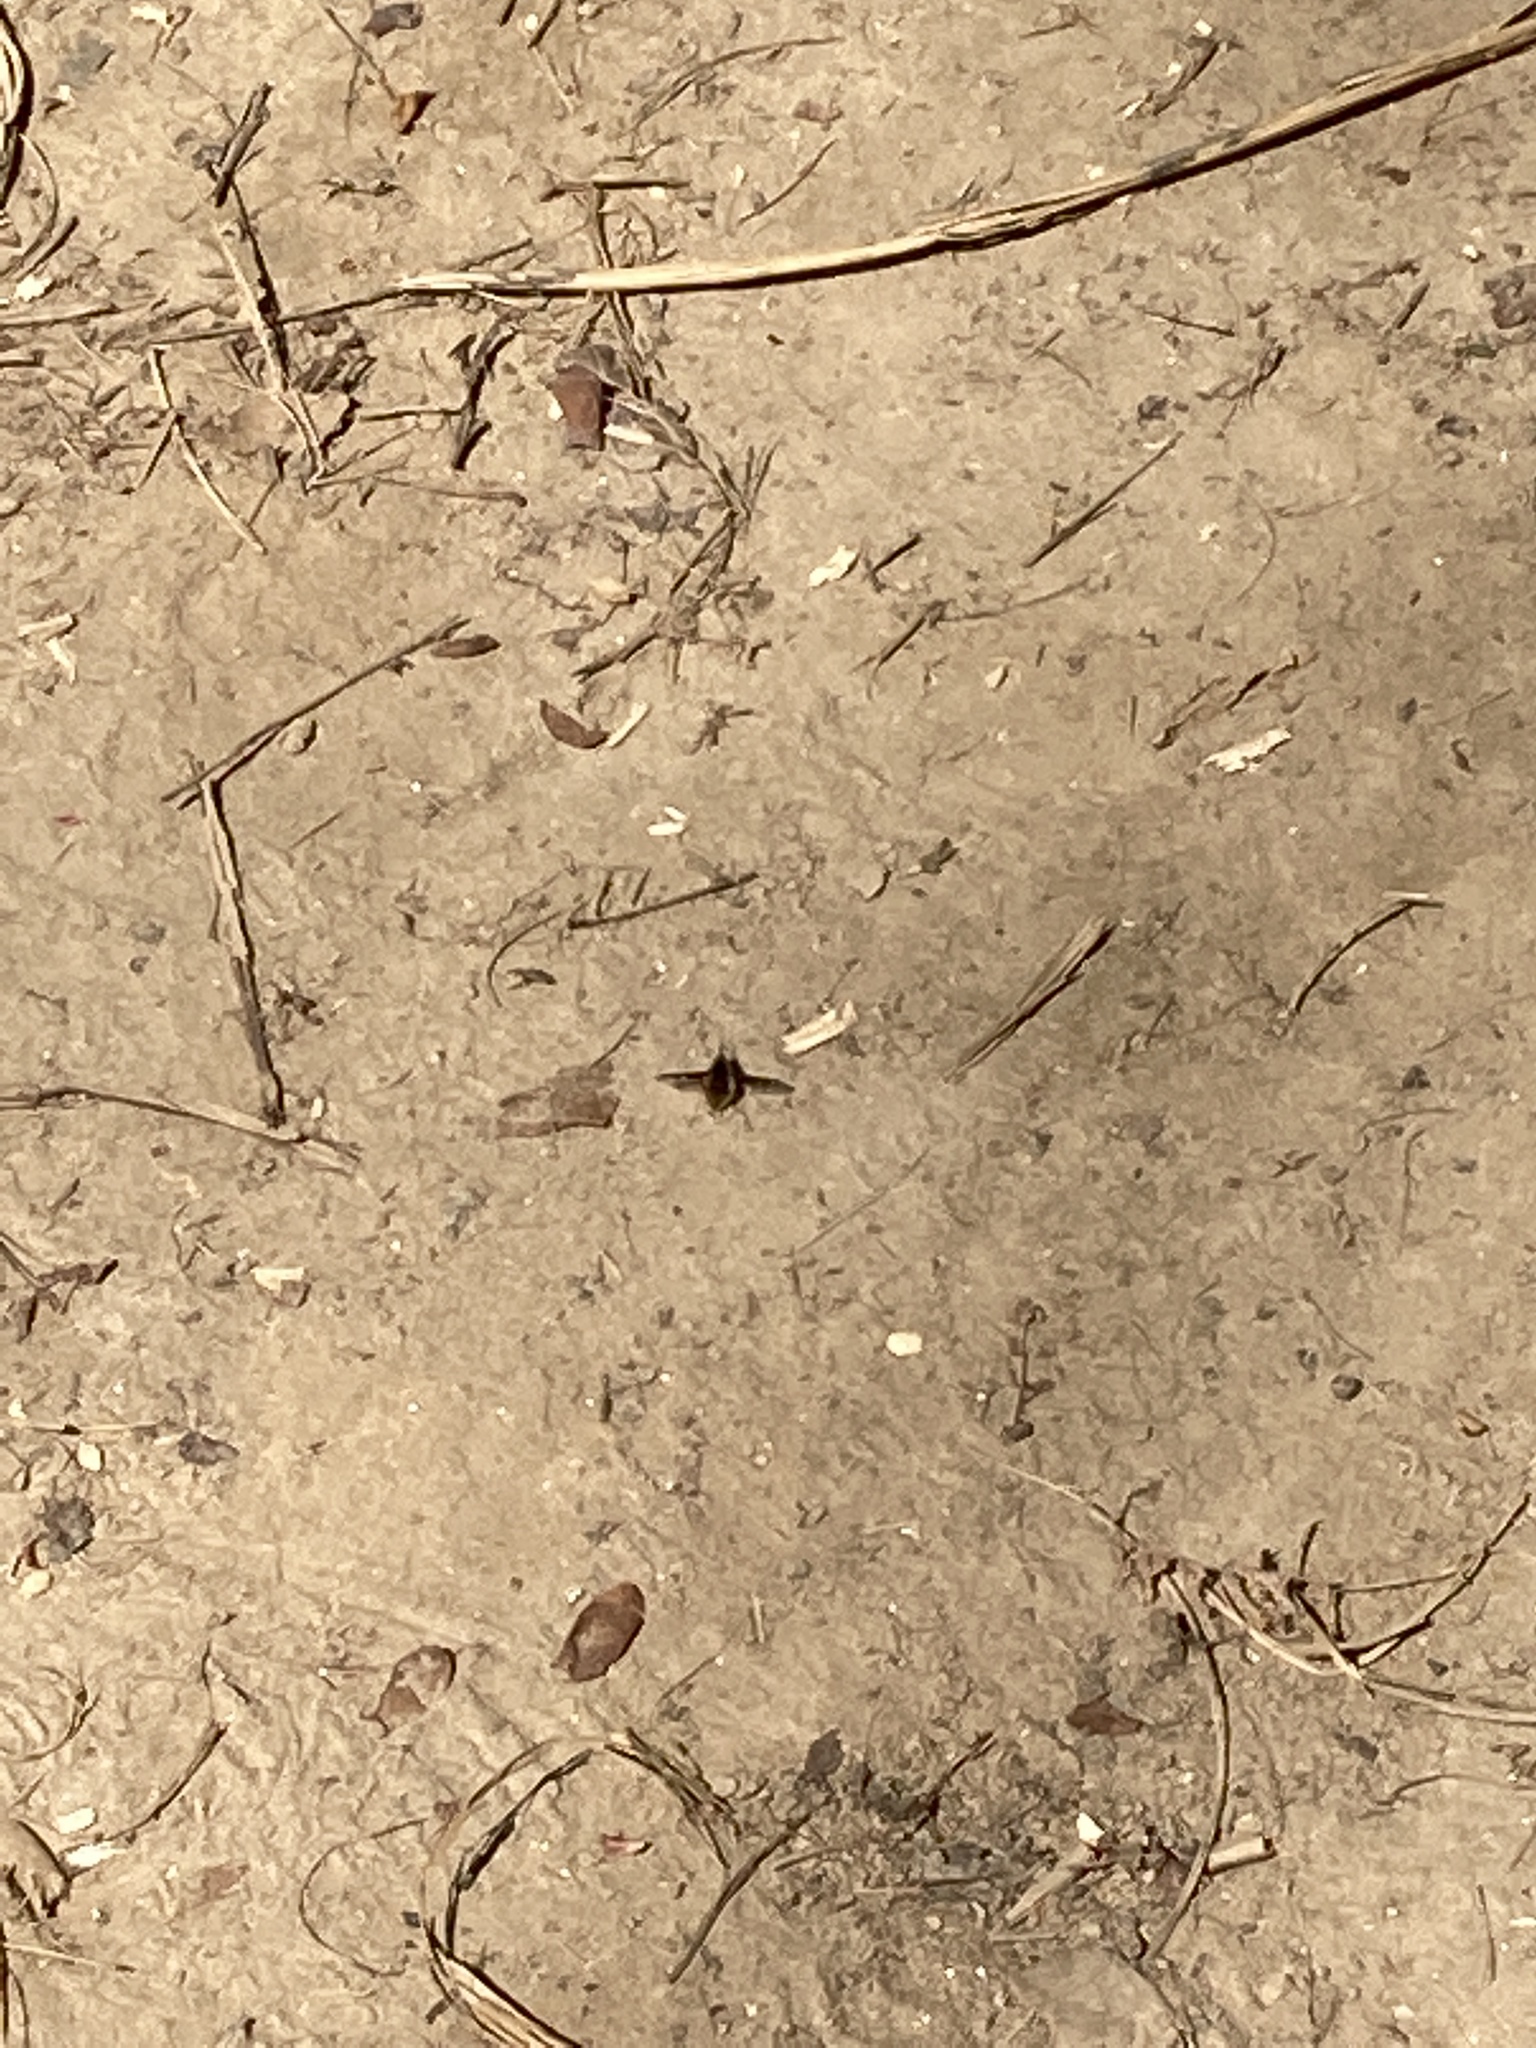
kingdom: Animalia
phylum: Arthropoda
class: Insecta
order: Diptera
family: Bombyliidae
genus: Bombylius
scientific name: Bombylius major
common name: Bee fly
